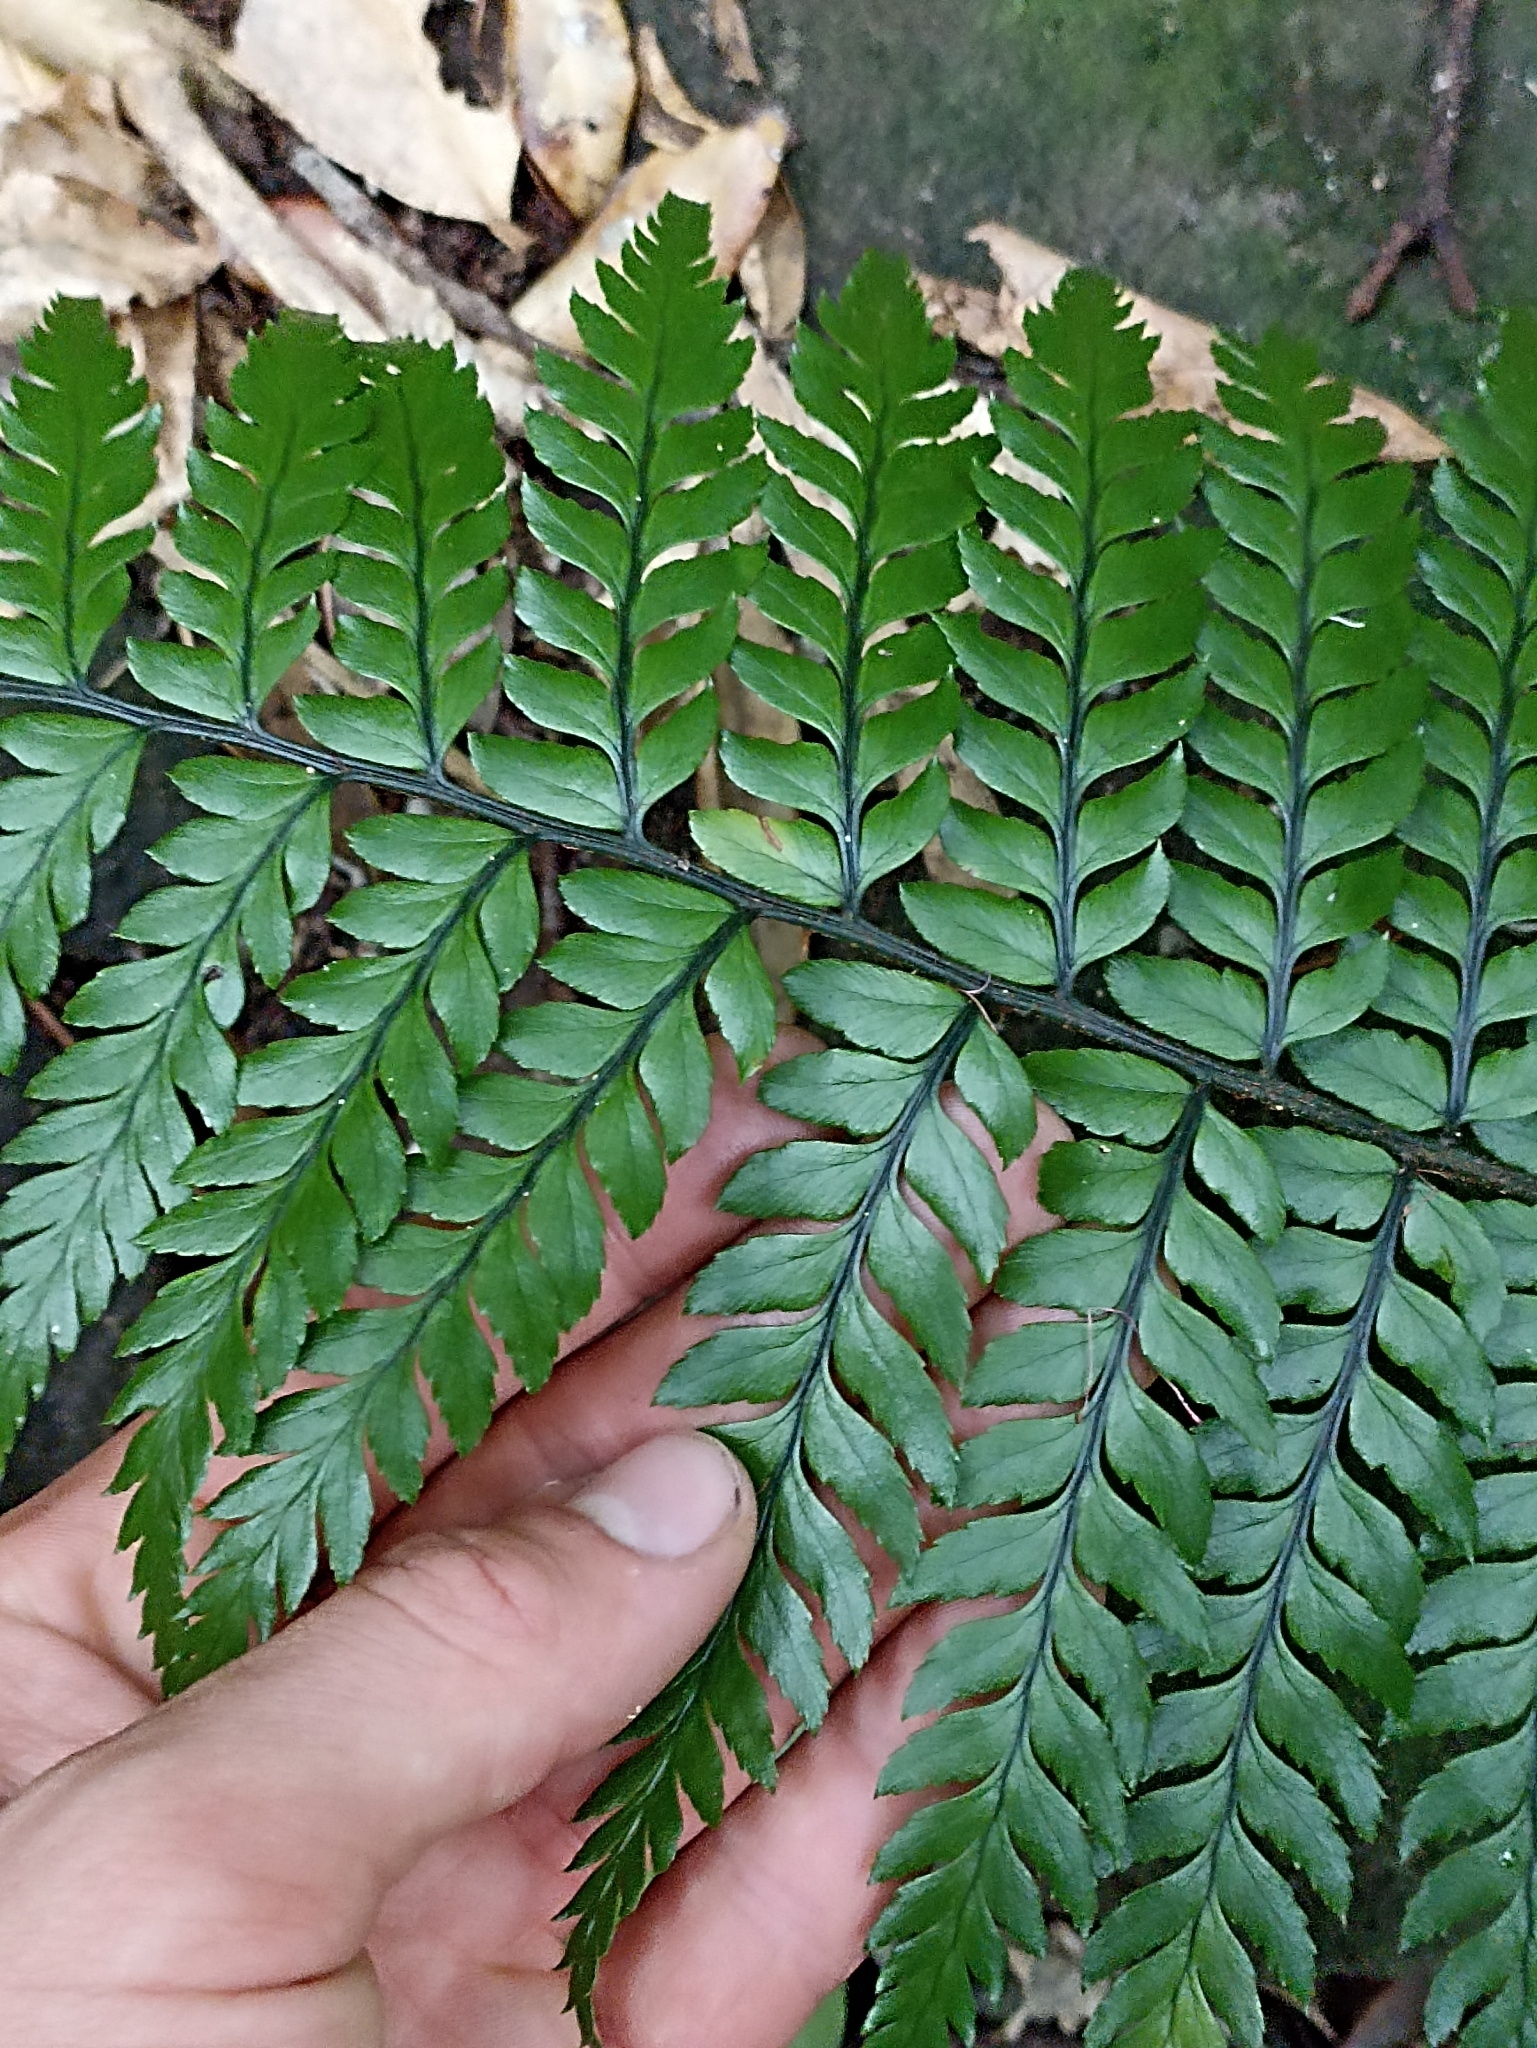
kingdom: Plantae
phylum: Tracheophyta
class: Polypodiopsida
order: Polypodiales
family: Dryopteridaceae
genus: Polystichum
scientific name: Polystichum wawranum
